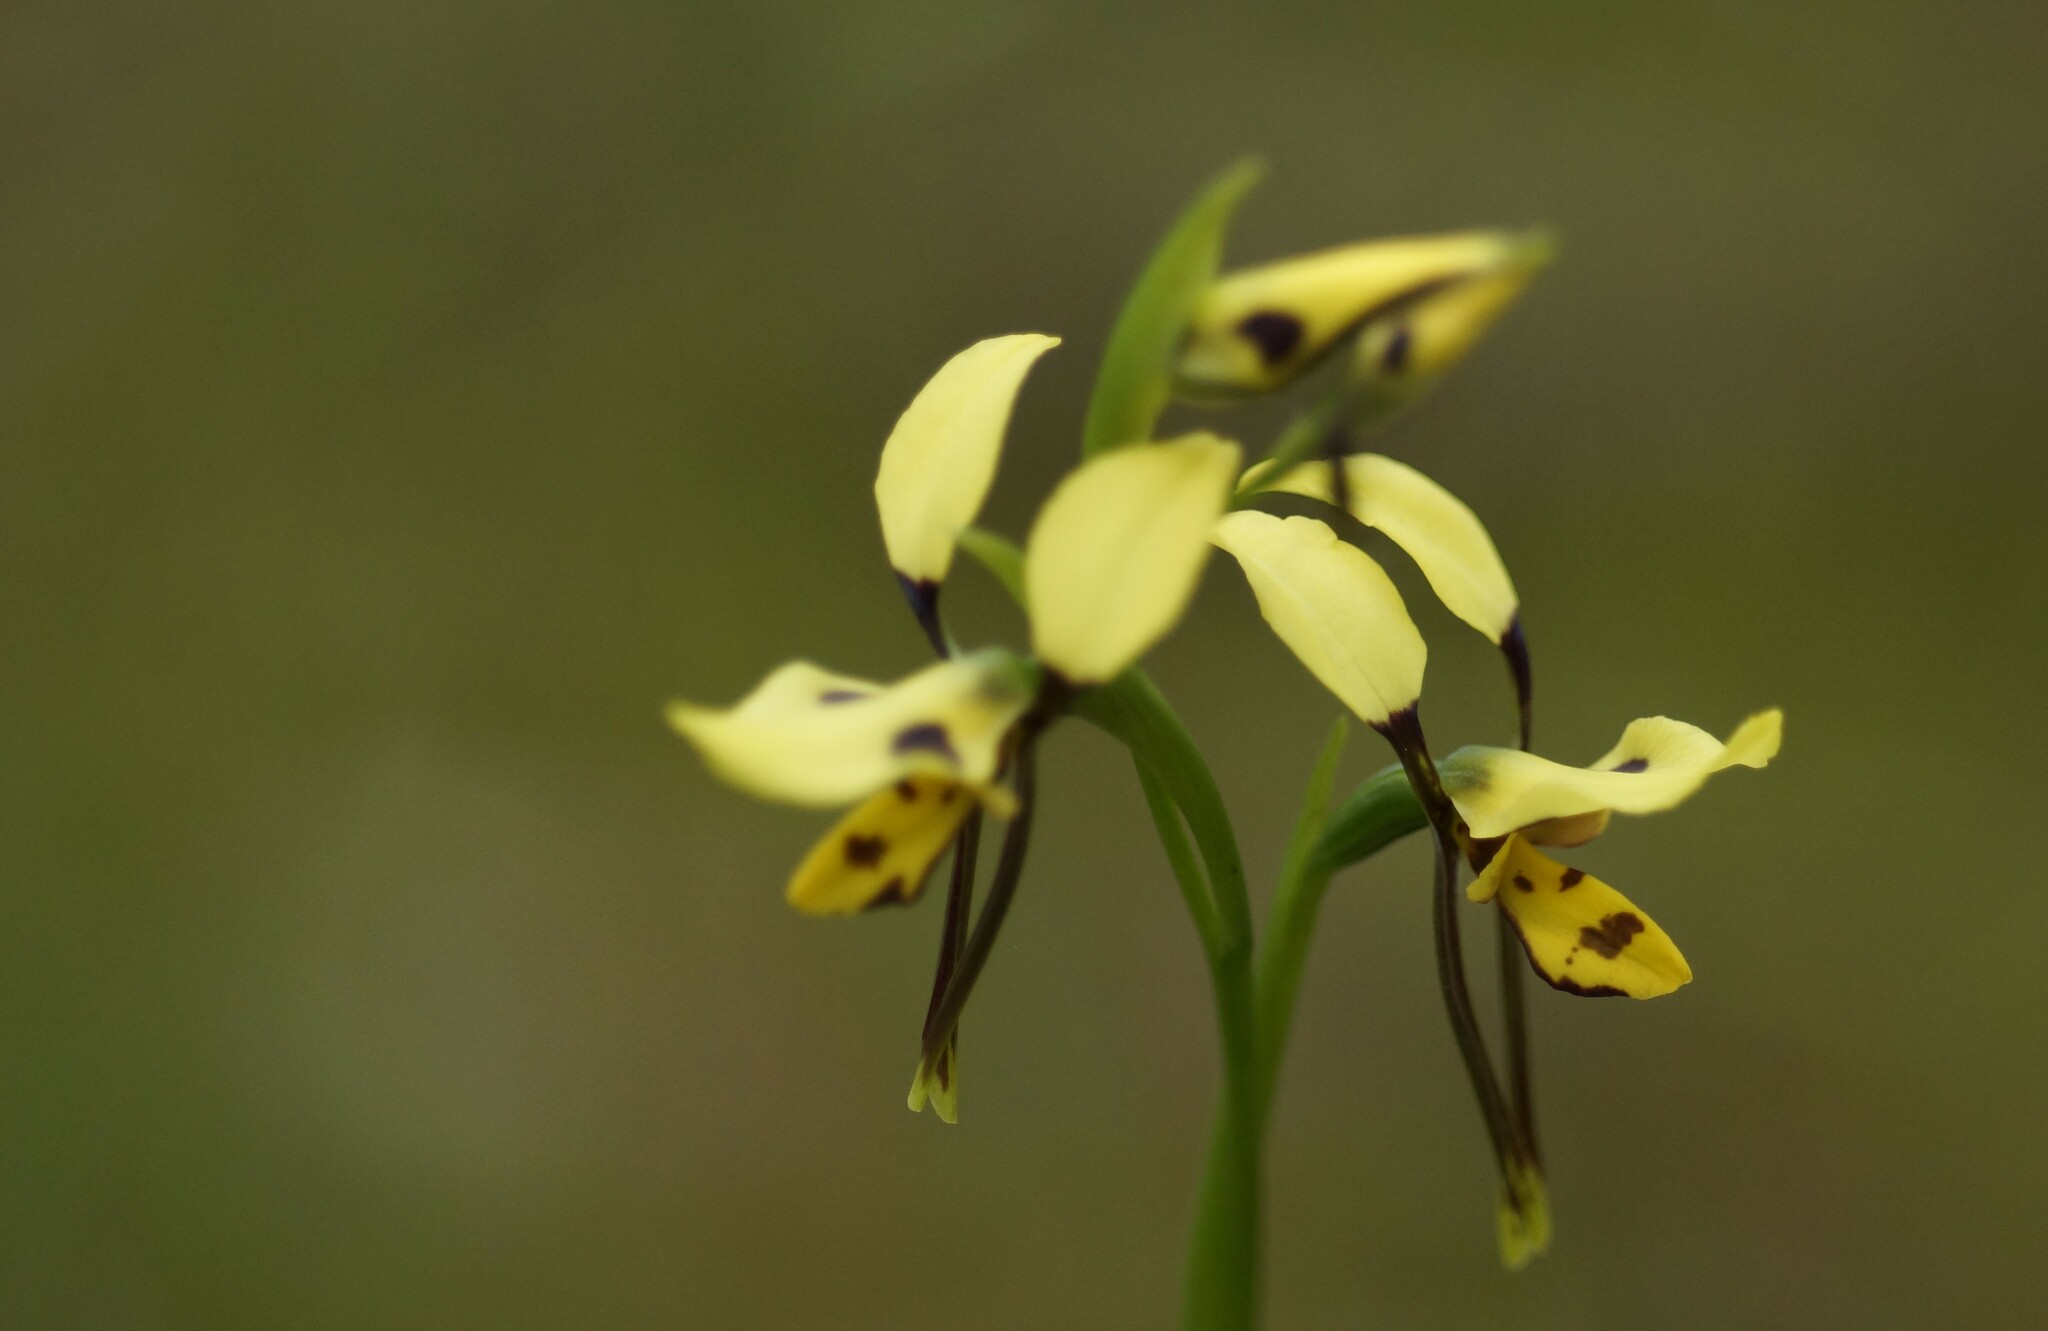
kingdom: Plantae
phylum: Tracheophyta
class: Liliopsida
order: Asparagales
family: Orchidaceae
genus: Diuris
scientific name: Diuris sulphurea
